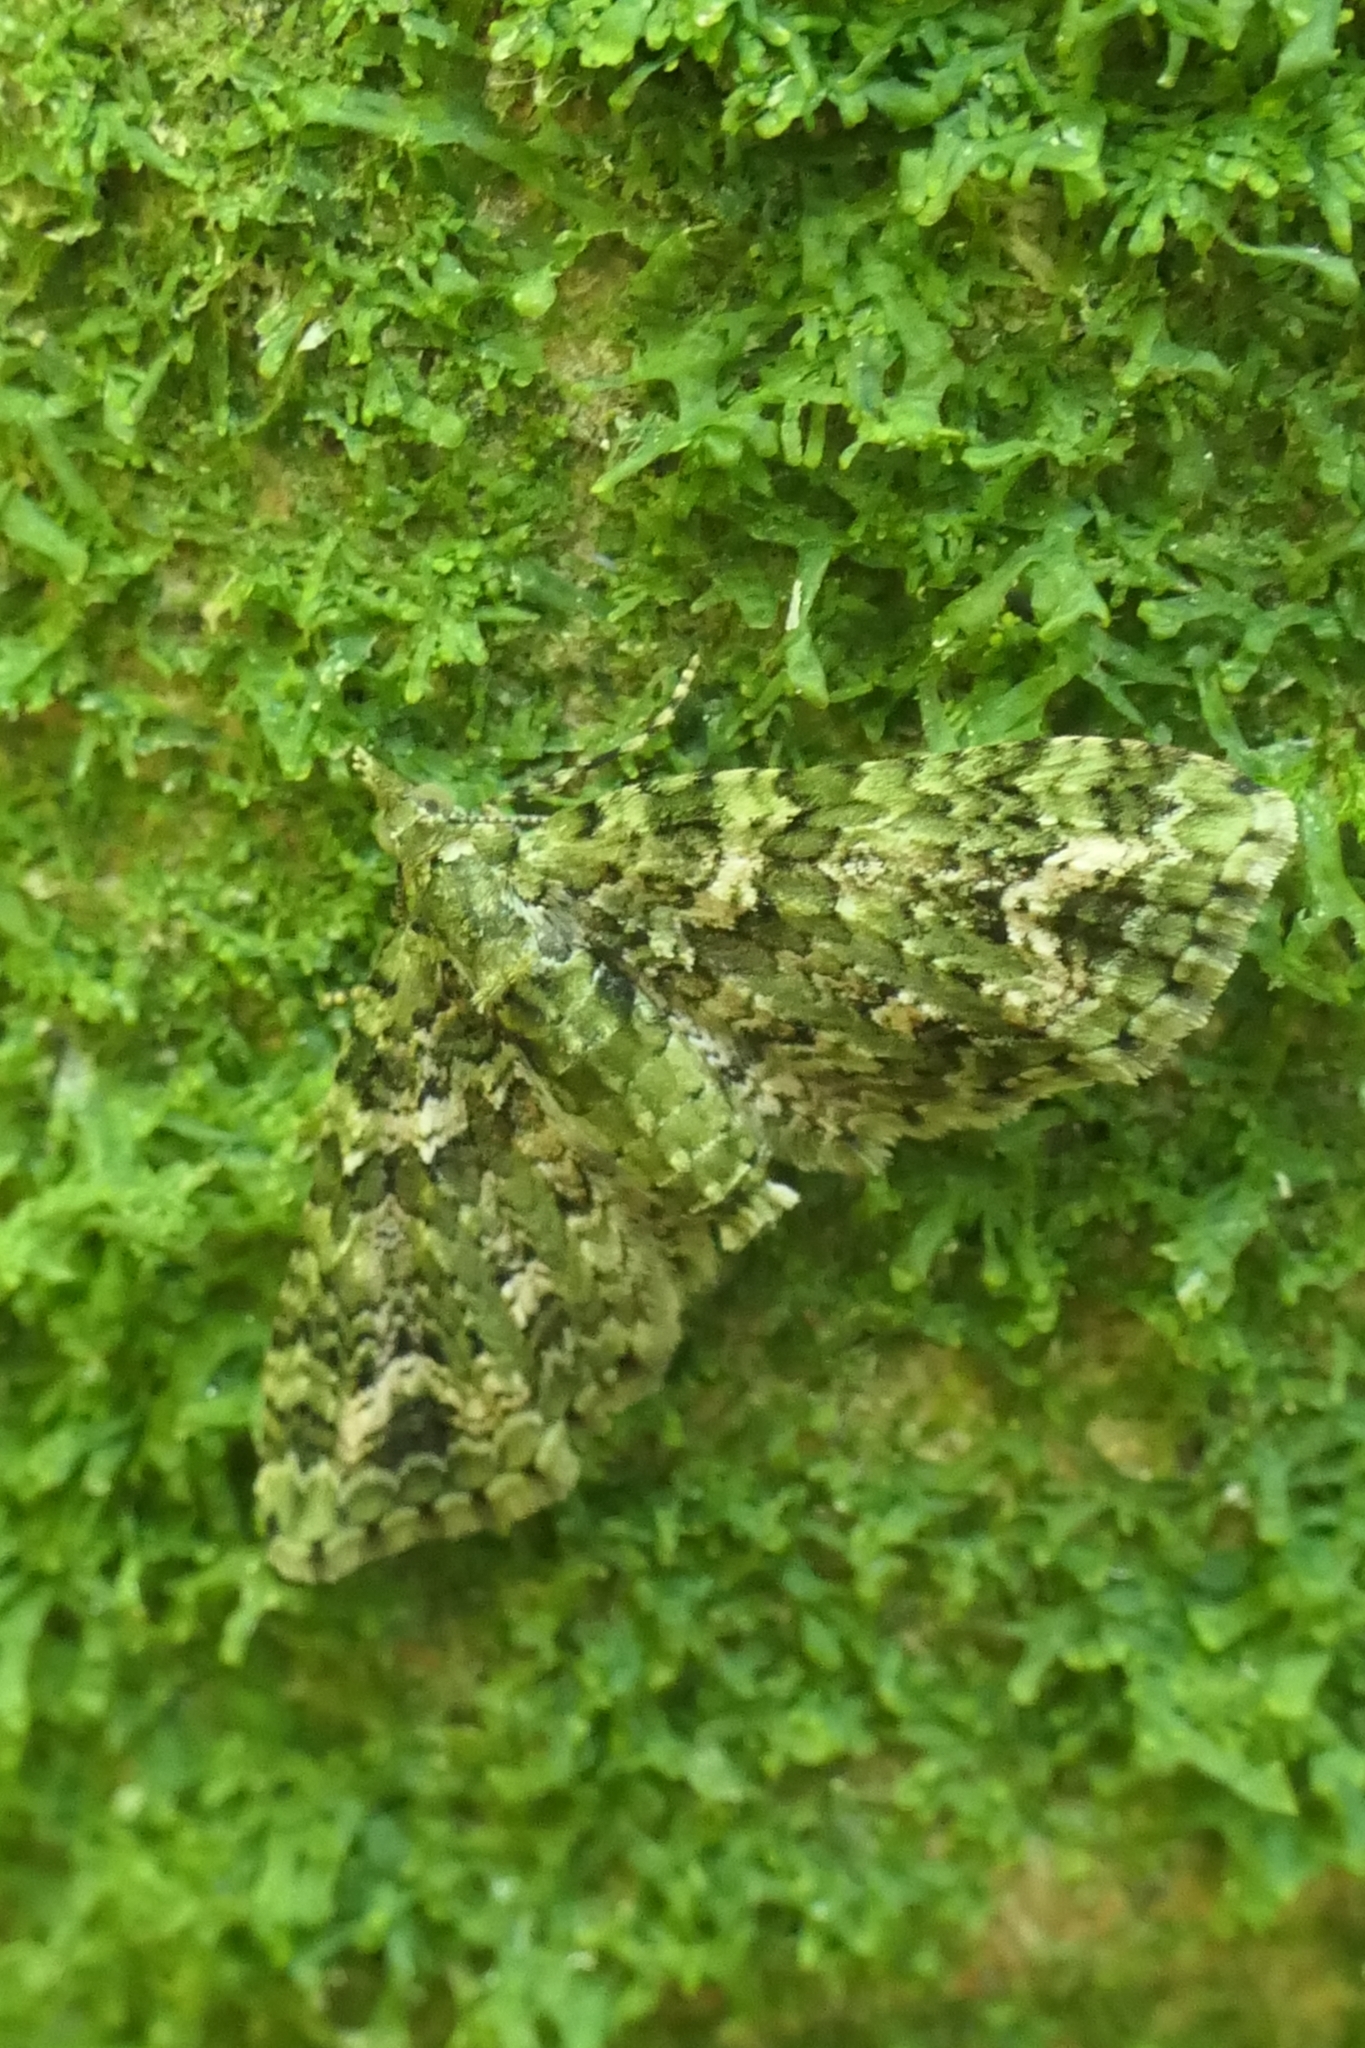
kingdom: Animalia
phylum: Arthropoda
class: Insecta
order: Lepidoptera
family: Geometridae
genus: Pasiphila
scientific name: Pasiphila muscosata
